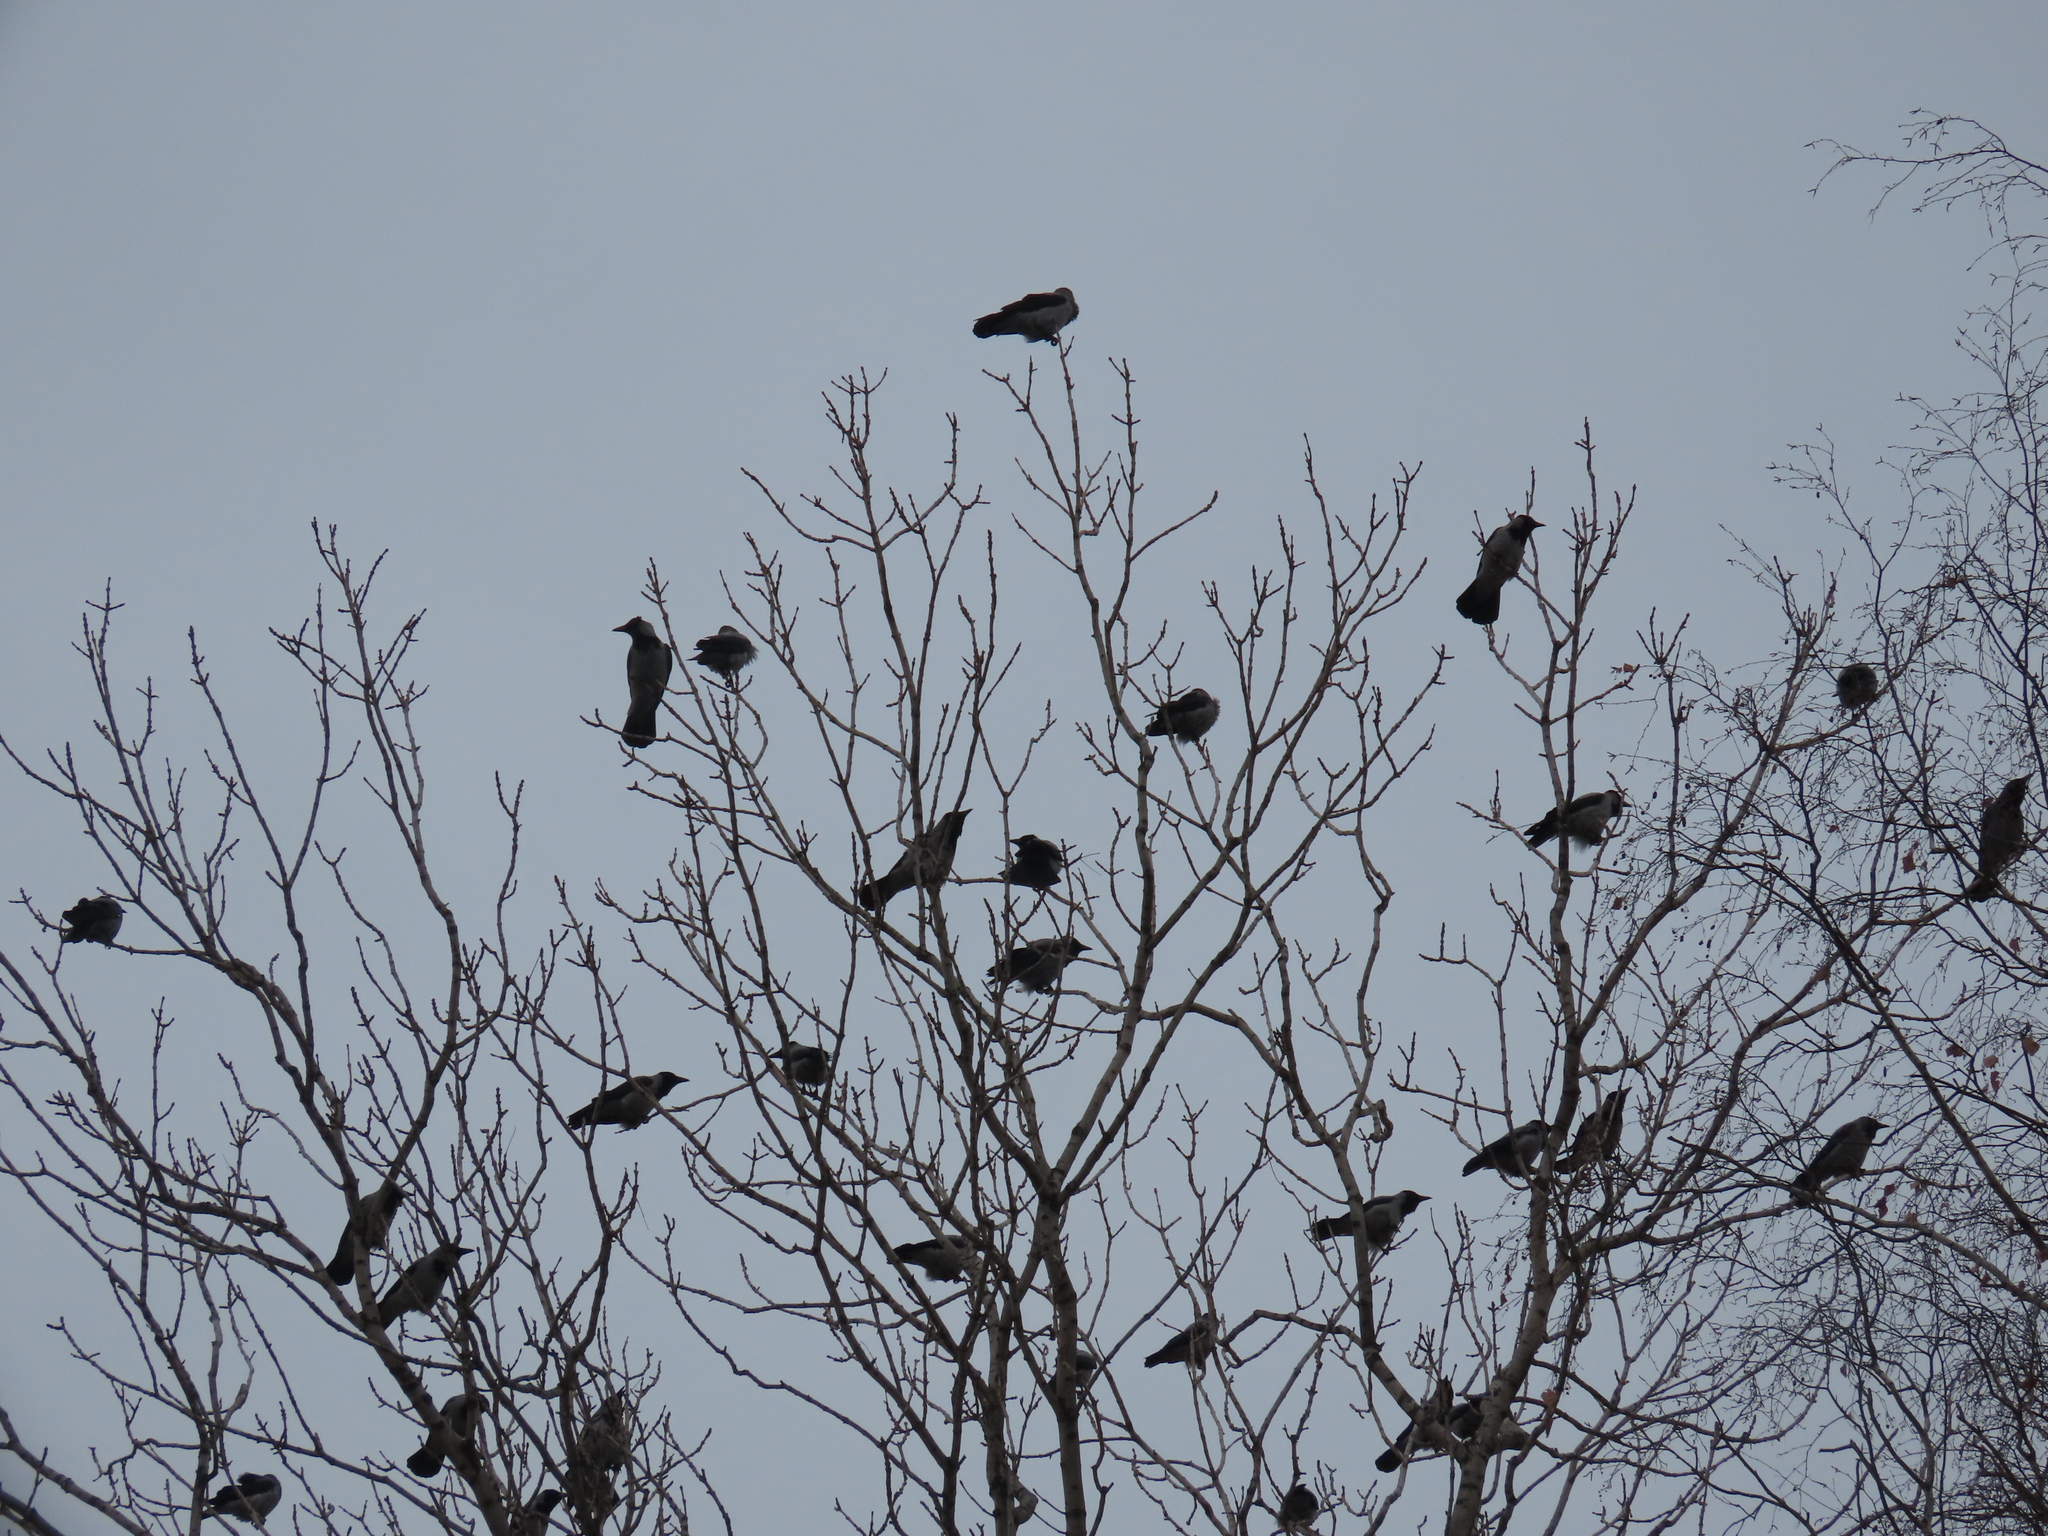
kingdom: Animalia
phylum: Chordata
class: Aves
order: Passeriformes
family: Corvidae
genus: Corvus
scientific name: Corvus cornix
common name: Hooded crow
